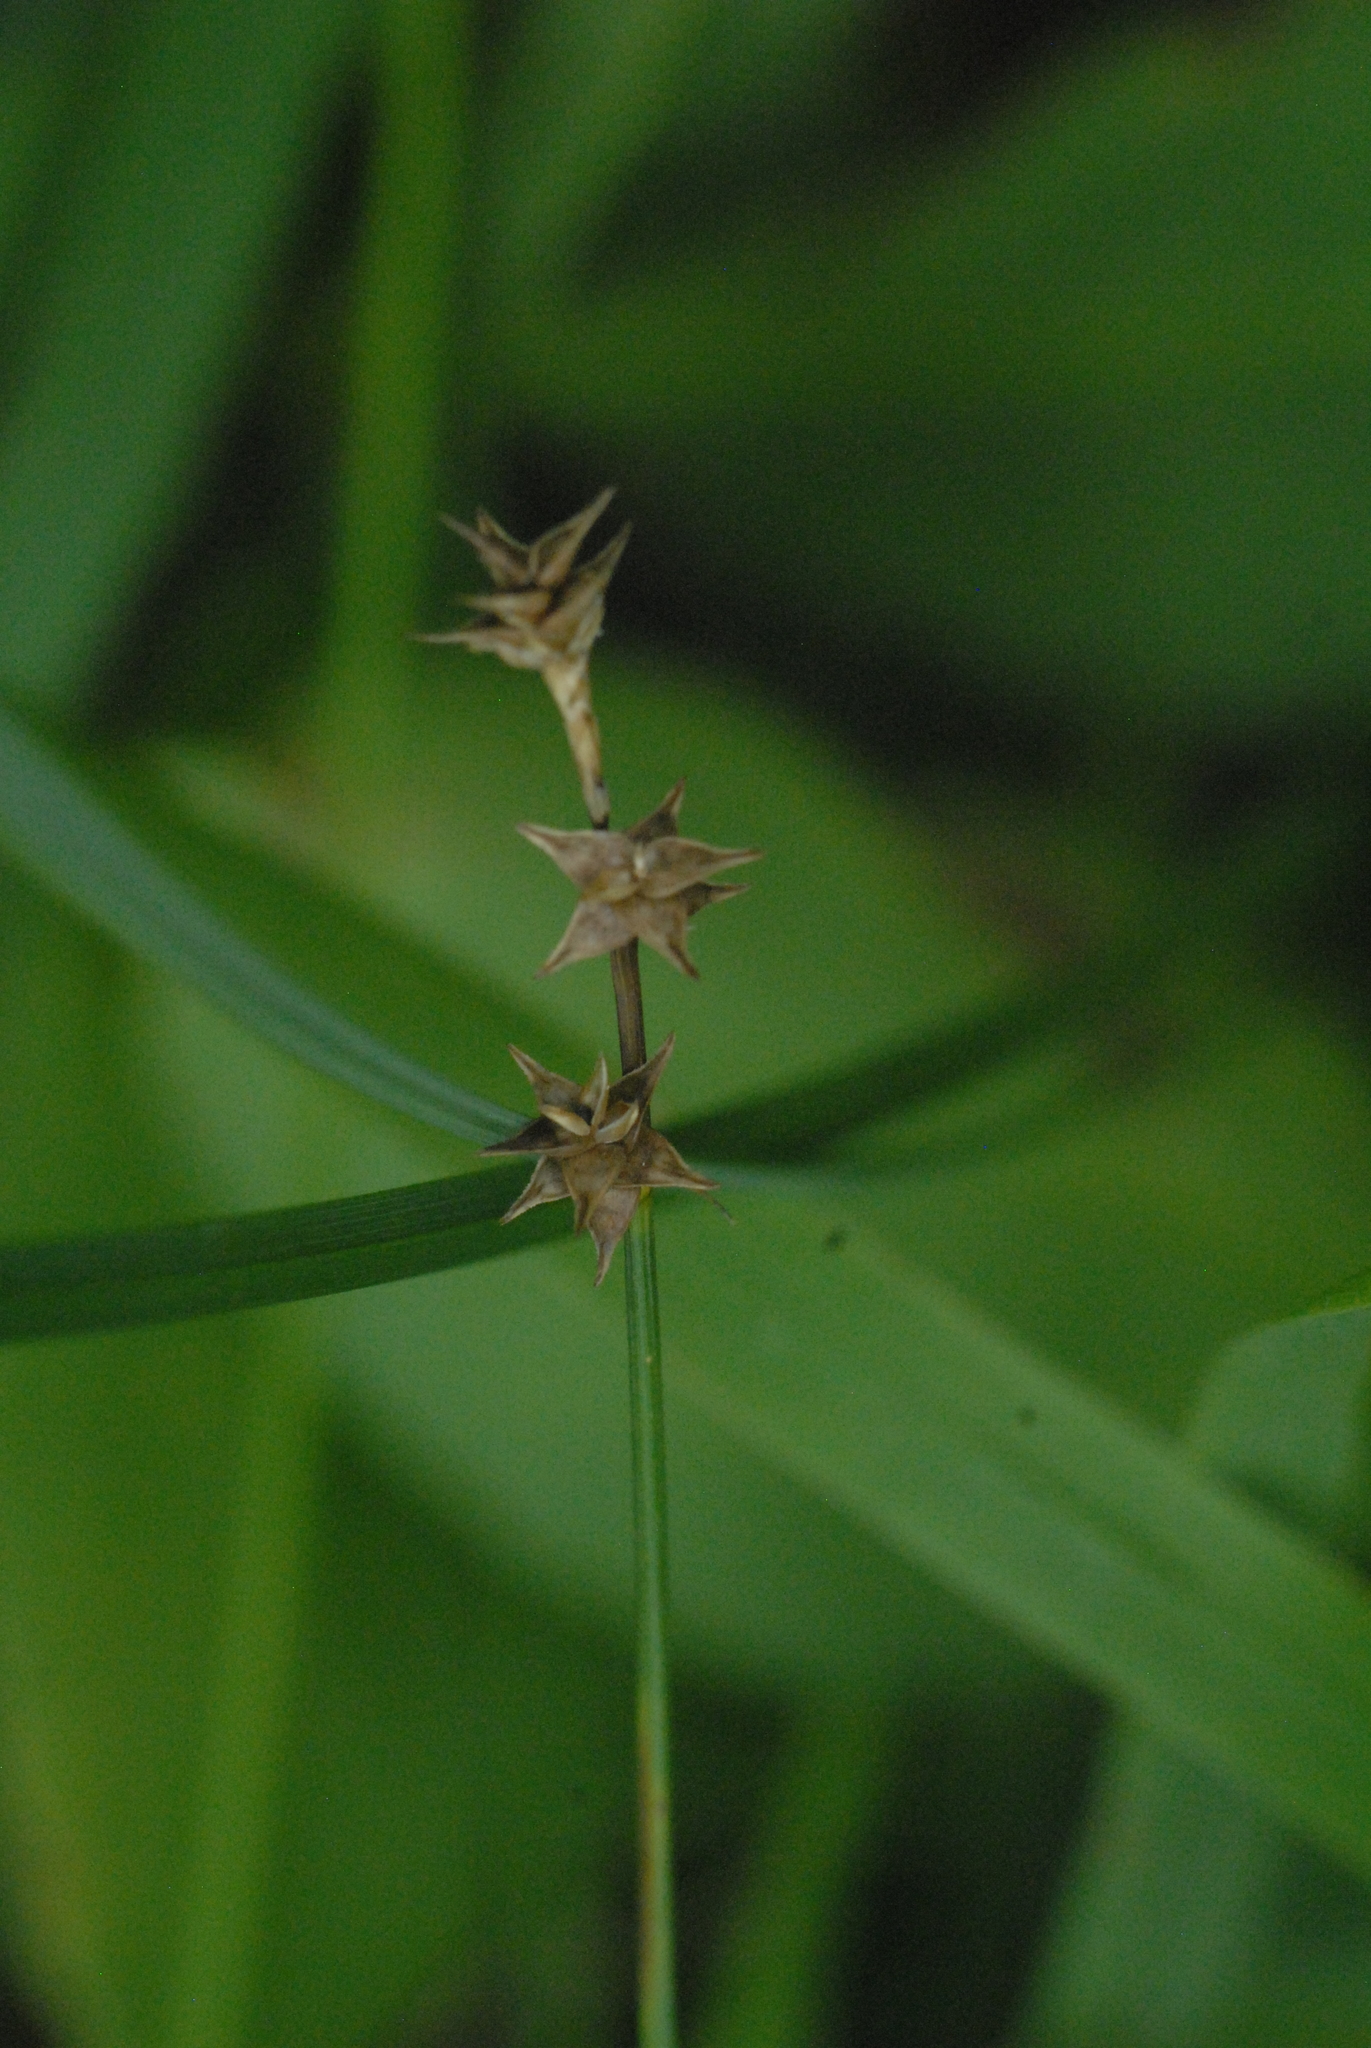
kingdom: Plantae
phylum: Tracheophyta
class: Liliopsida
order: Poales
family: Cyperaceae
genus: Carex
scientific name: Carex echinata
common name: Star sedge
